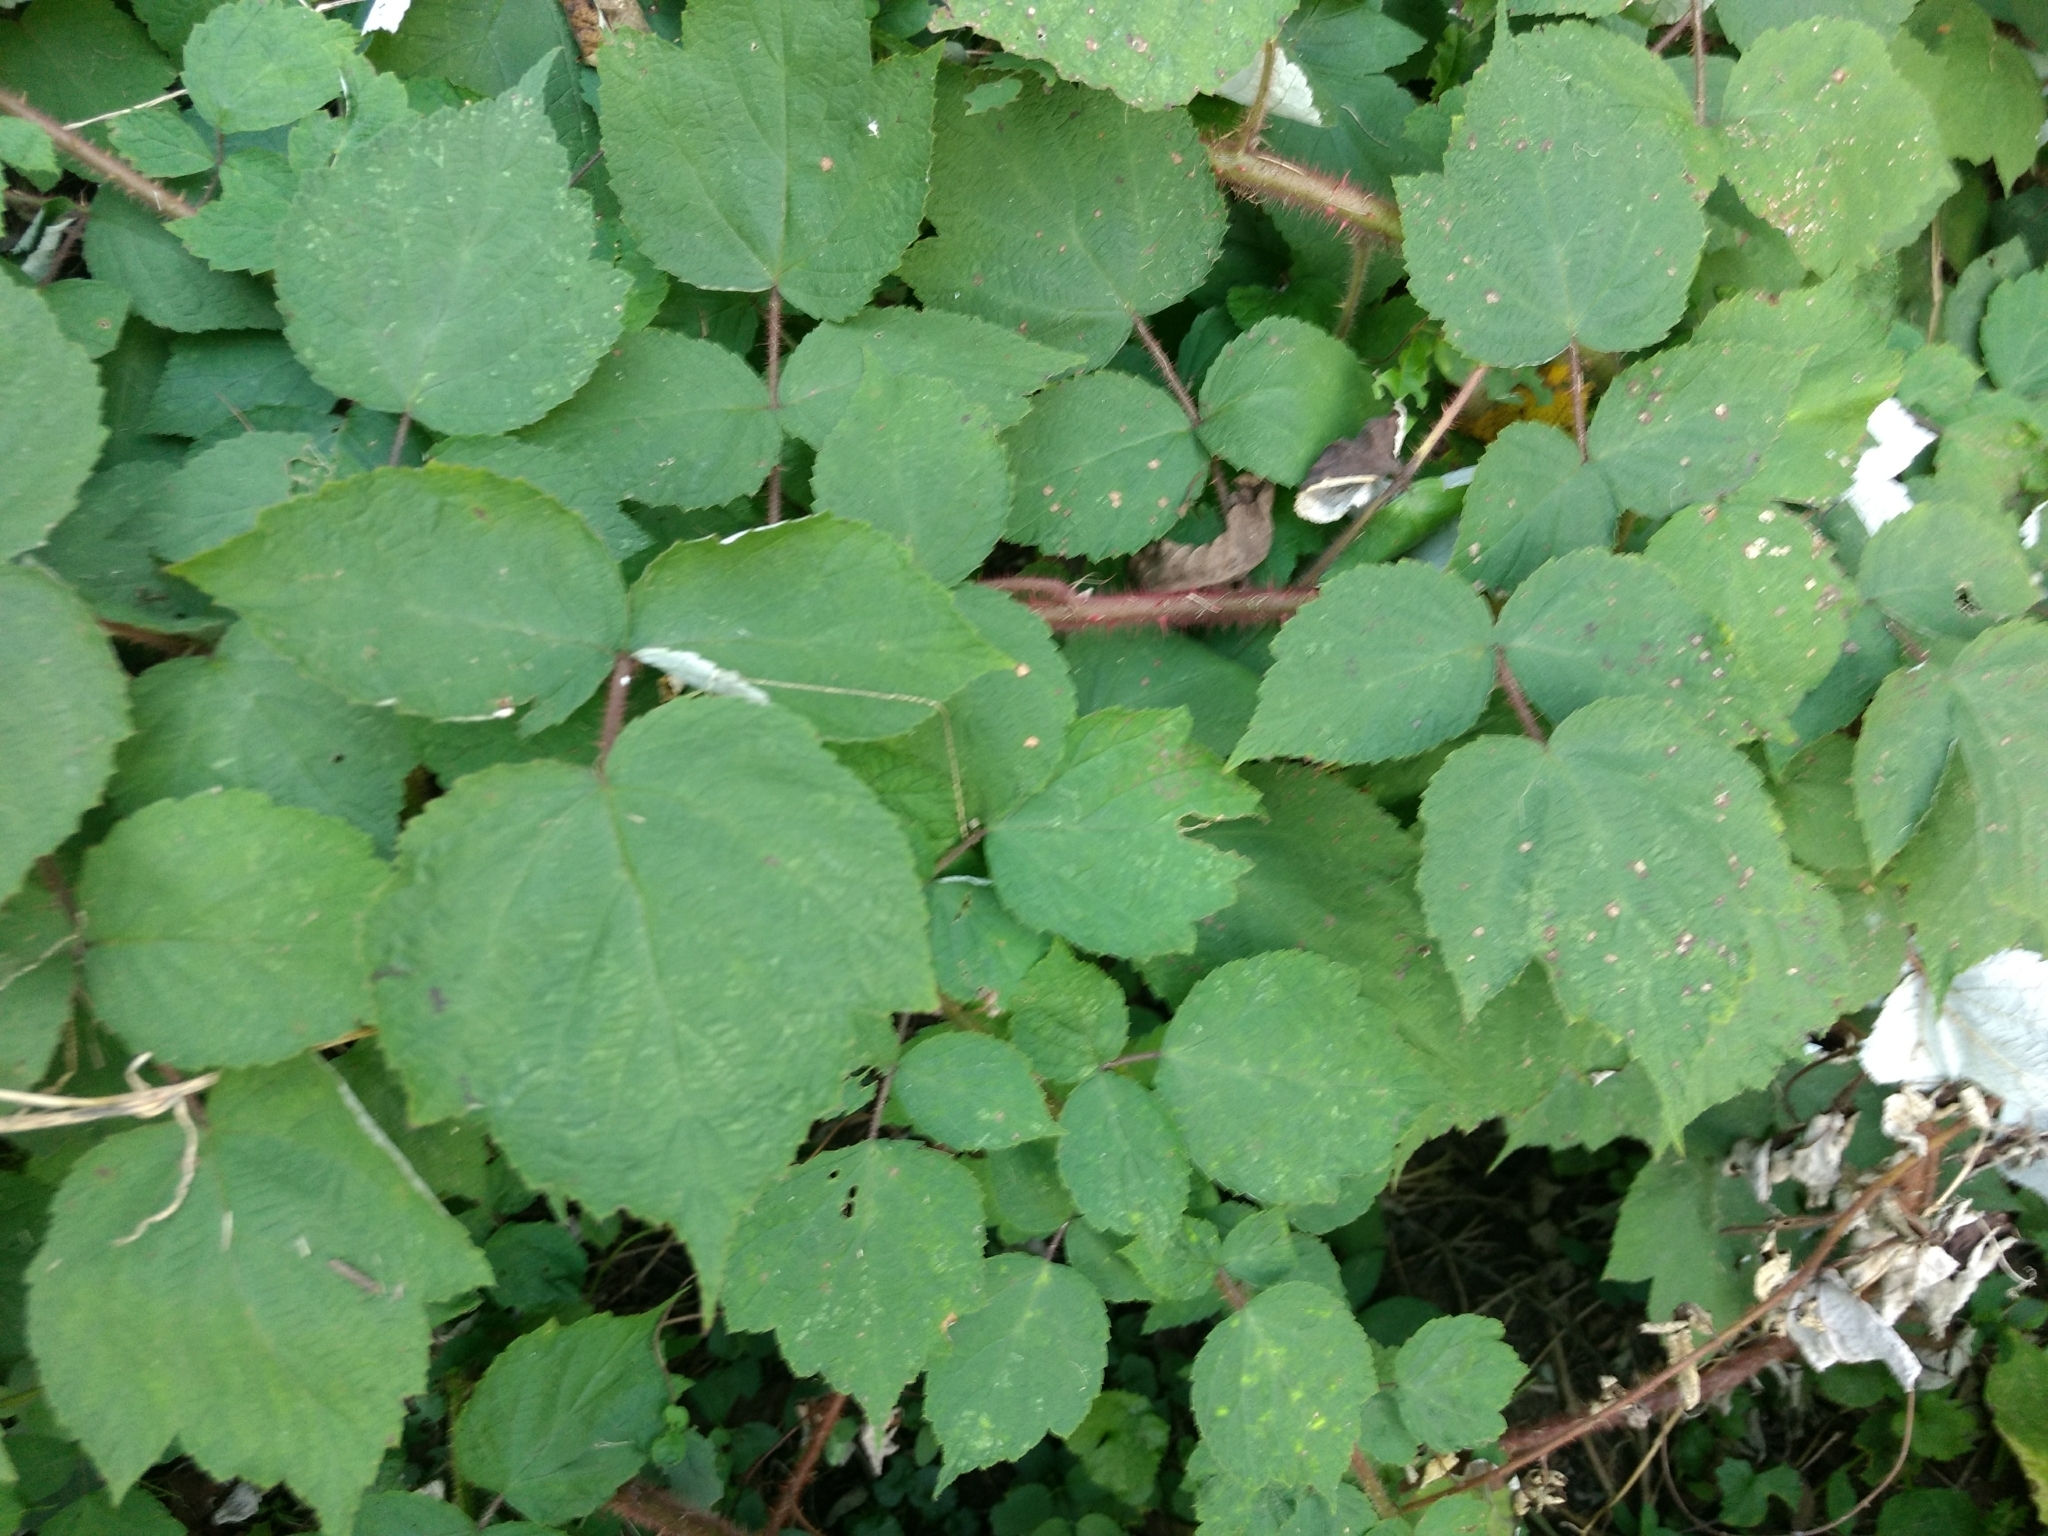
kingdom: Plantae
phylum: Tracheophyta
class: Magnoliopsida
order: Rosales
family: Rosaceae
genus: Rubus
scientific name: Rubus phoenicolasius
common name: Japanese wineberry
